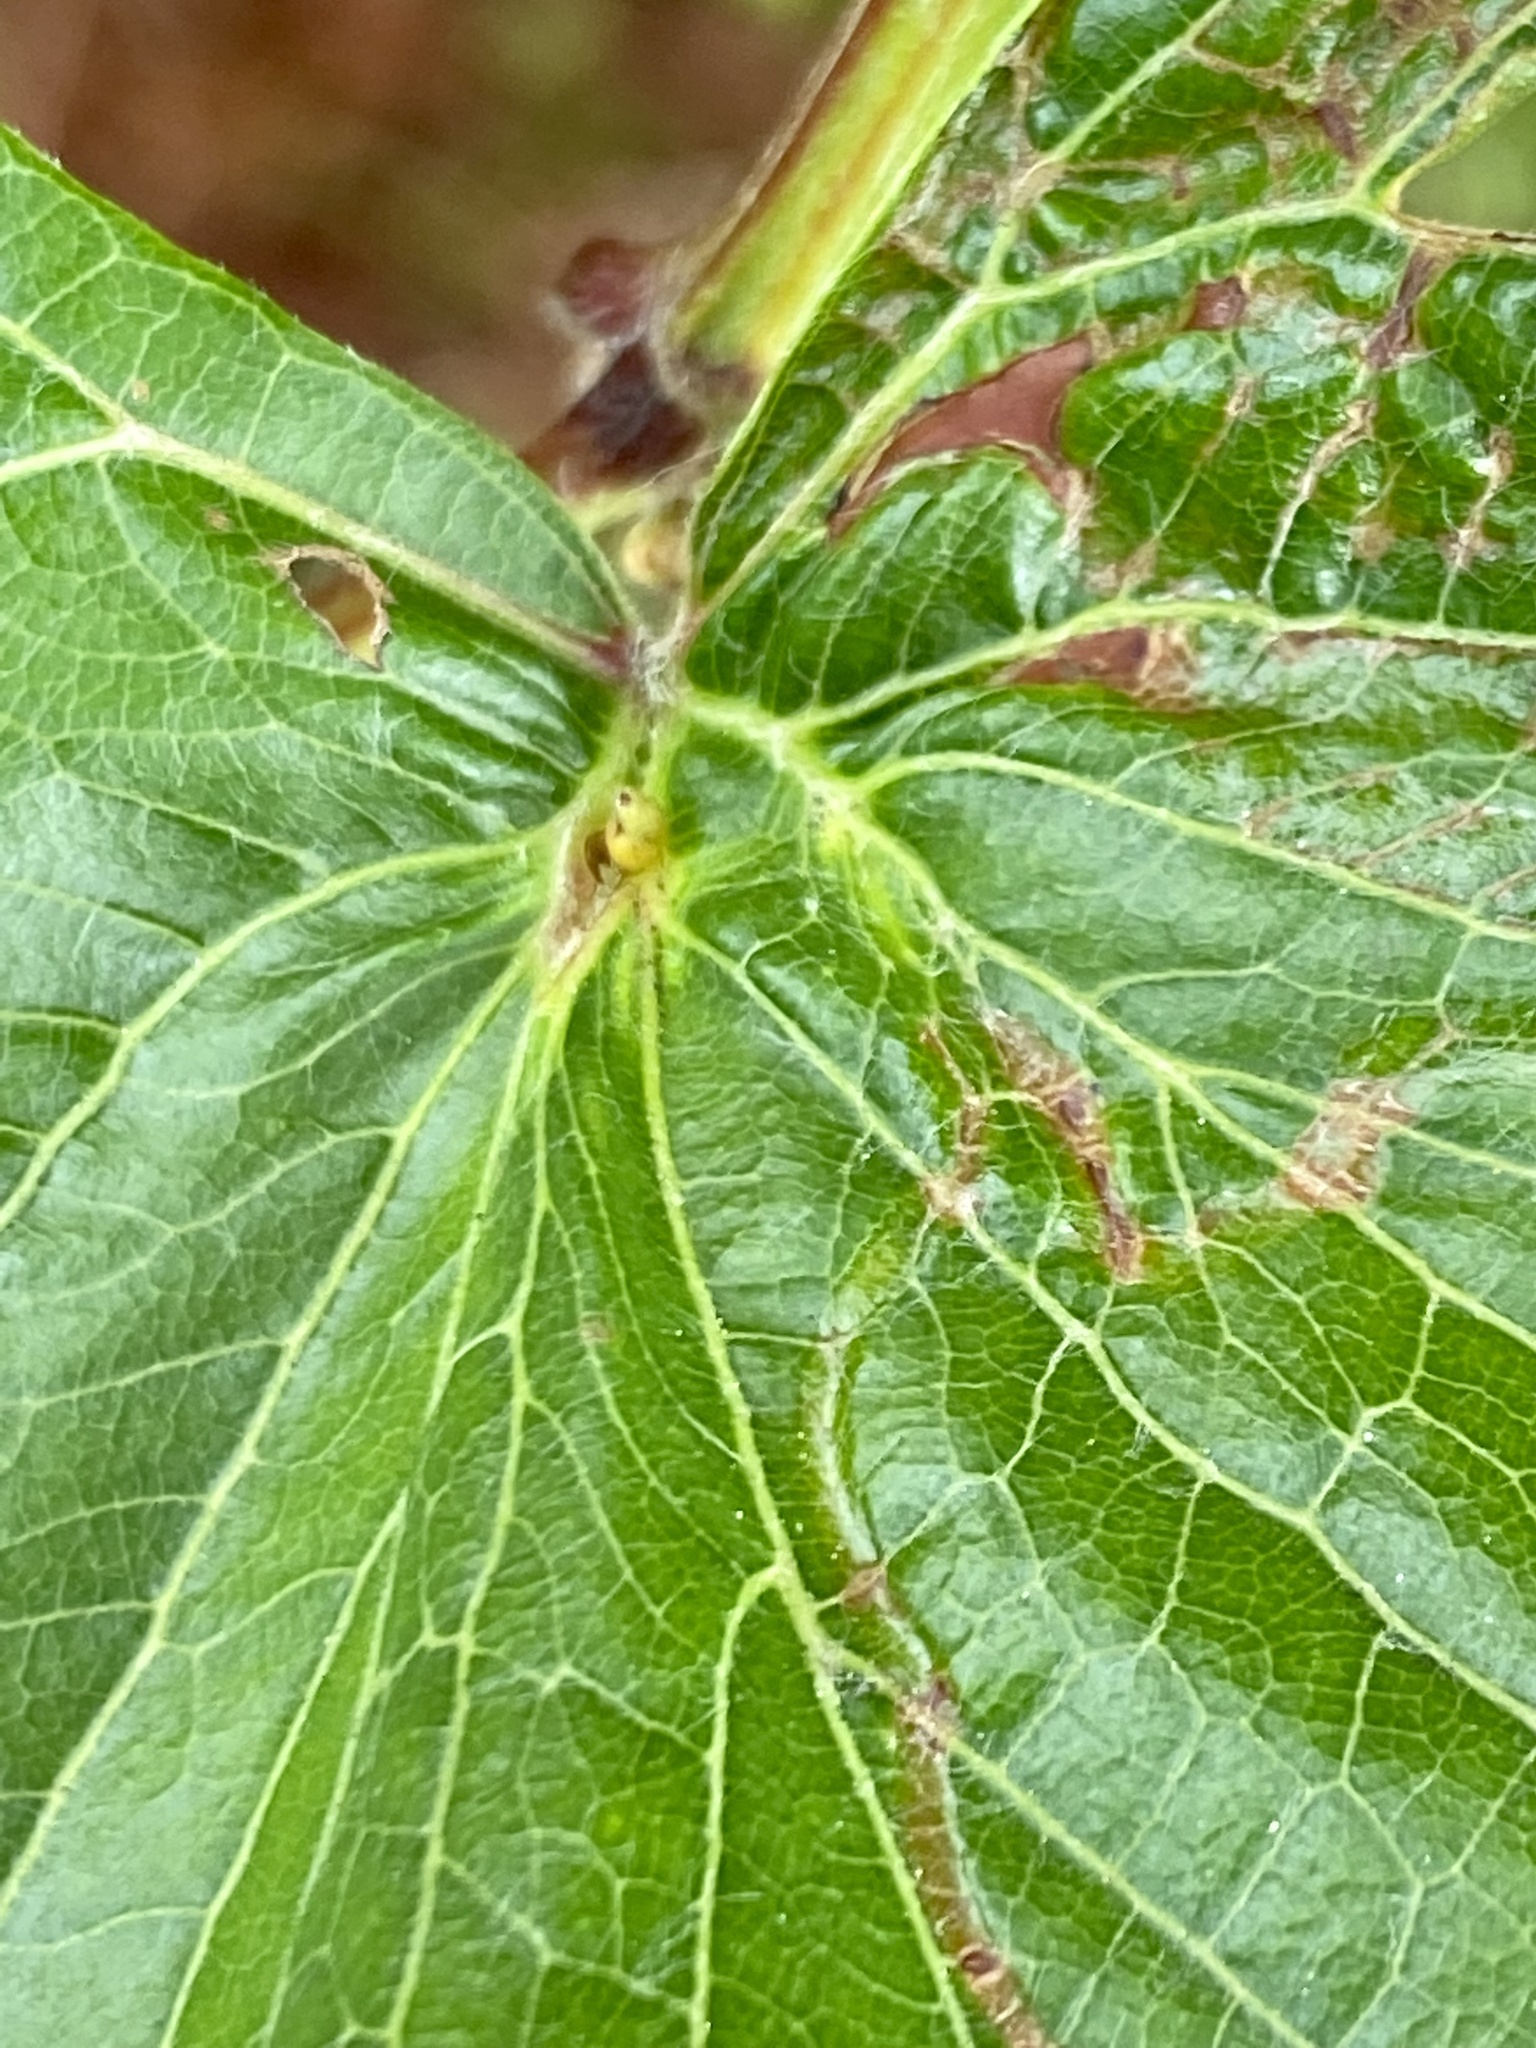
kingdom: Animalia
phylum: Arthropoda
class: Insecta
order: Diptera
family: Cecidomyiidae
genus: Ampelomyia
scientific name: Ampelomyia viticola
